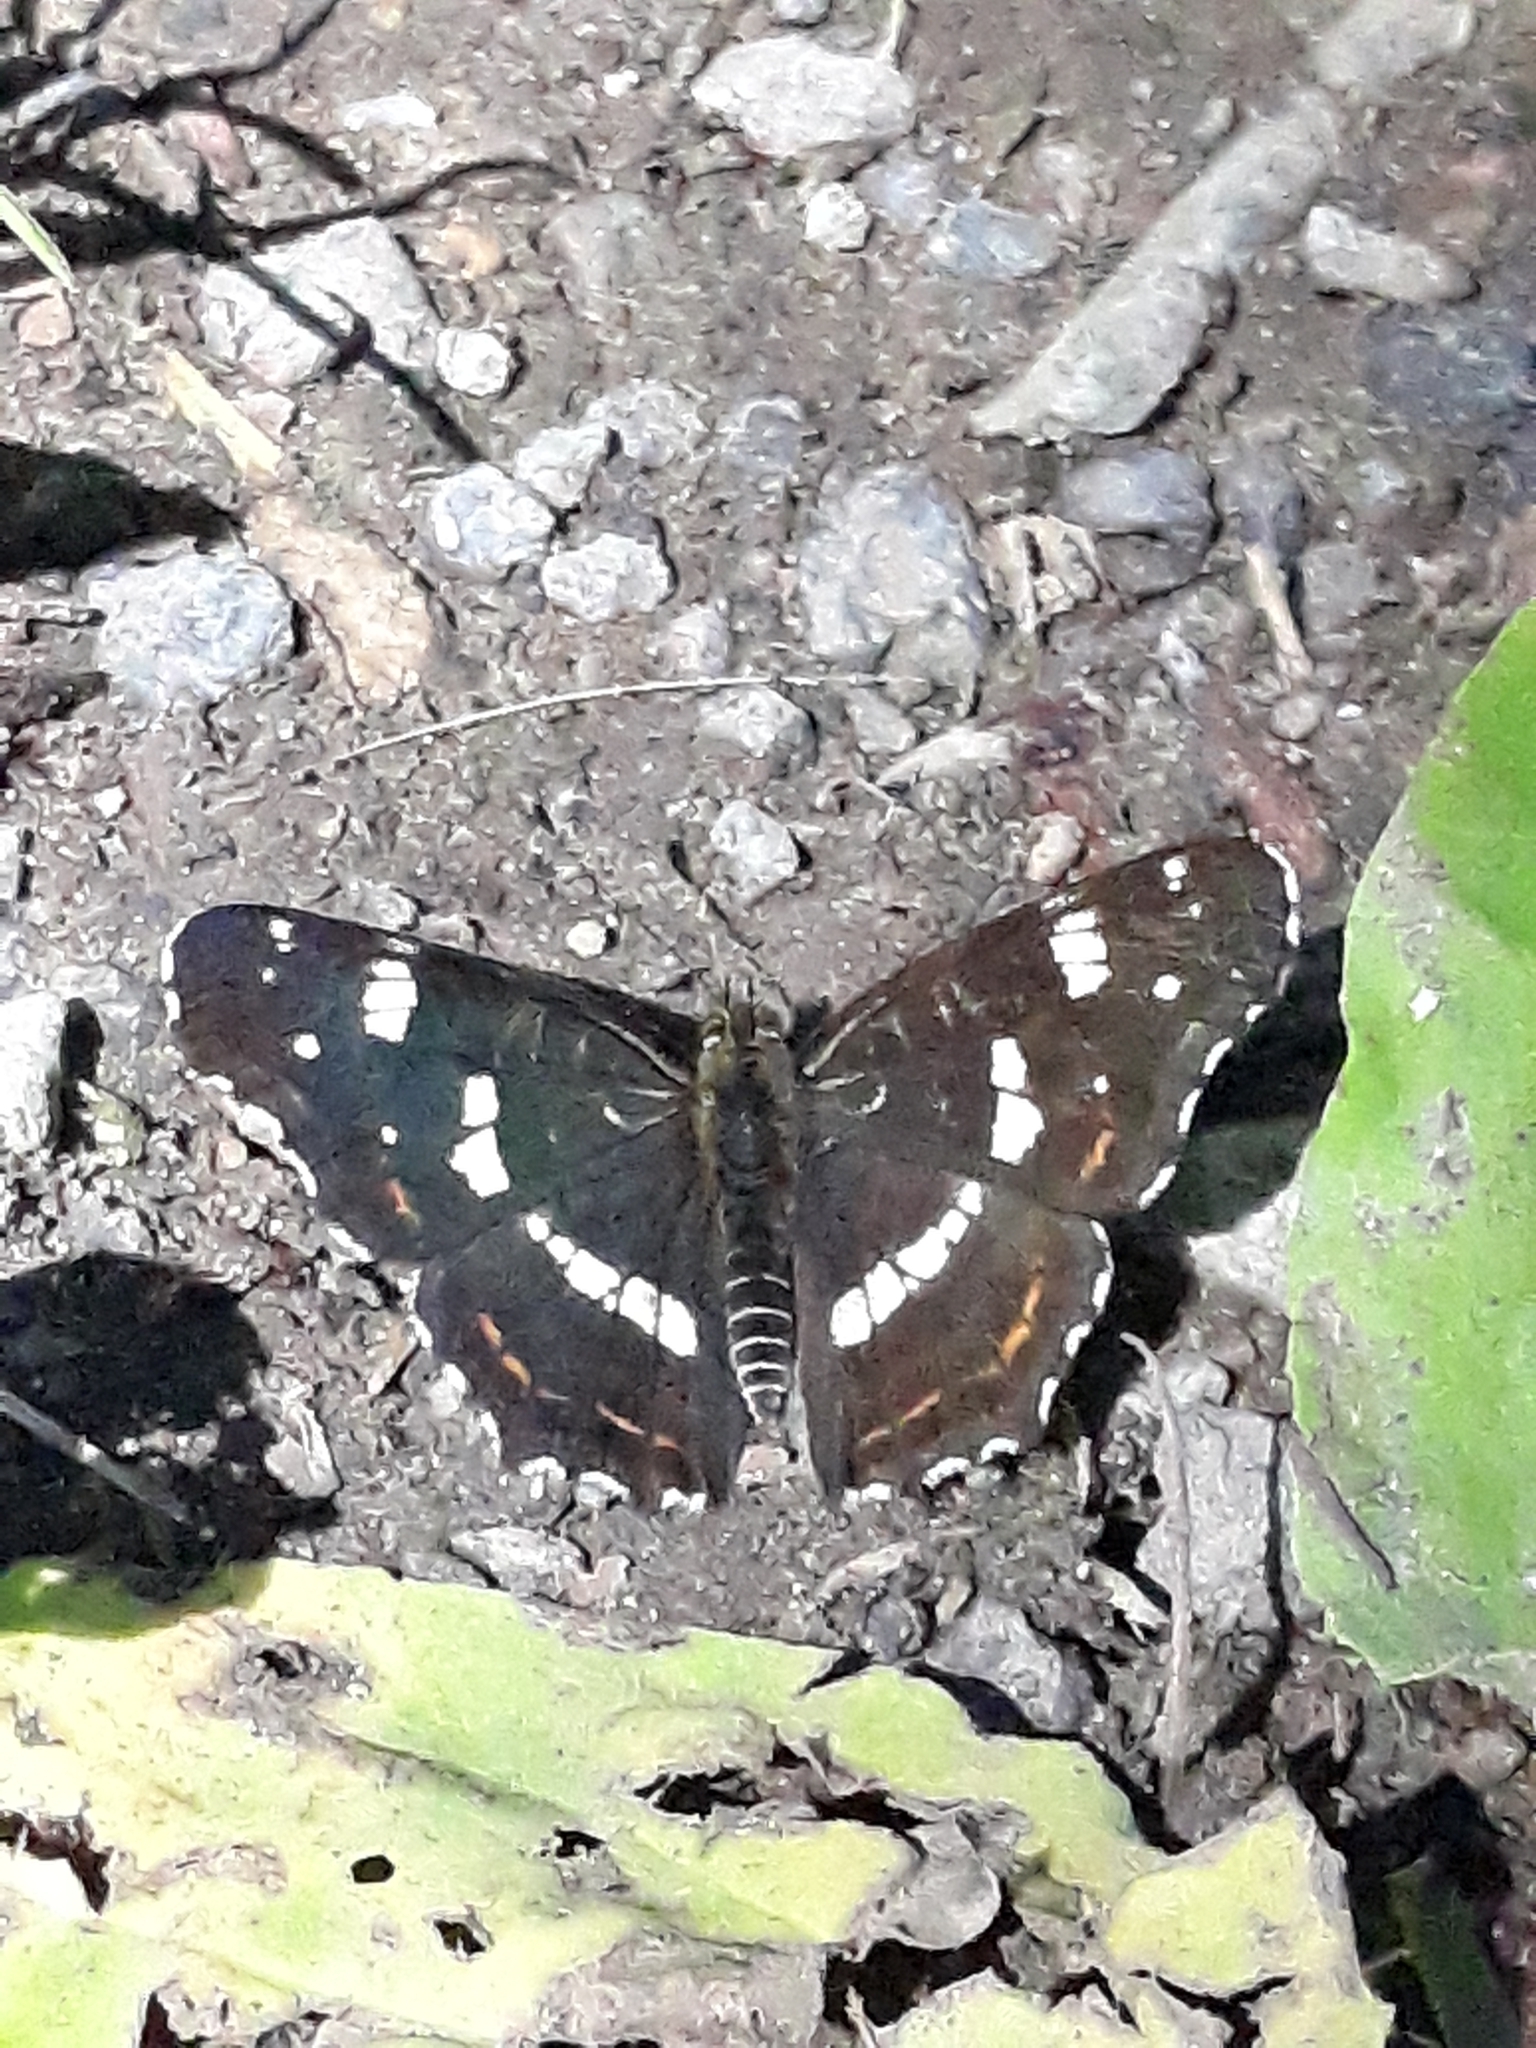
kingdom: Animalia
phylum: Arthropoda
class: Insecta
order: Lepidoptera
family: Nymphalidae
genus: Araschnia
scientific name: Araschnia levana
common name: Map butterfly
